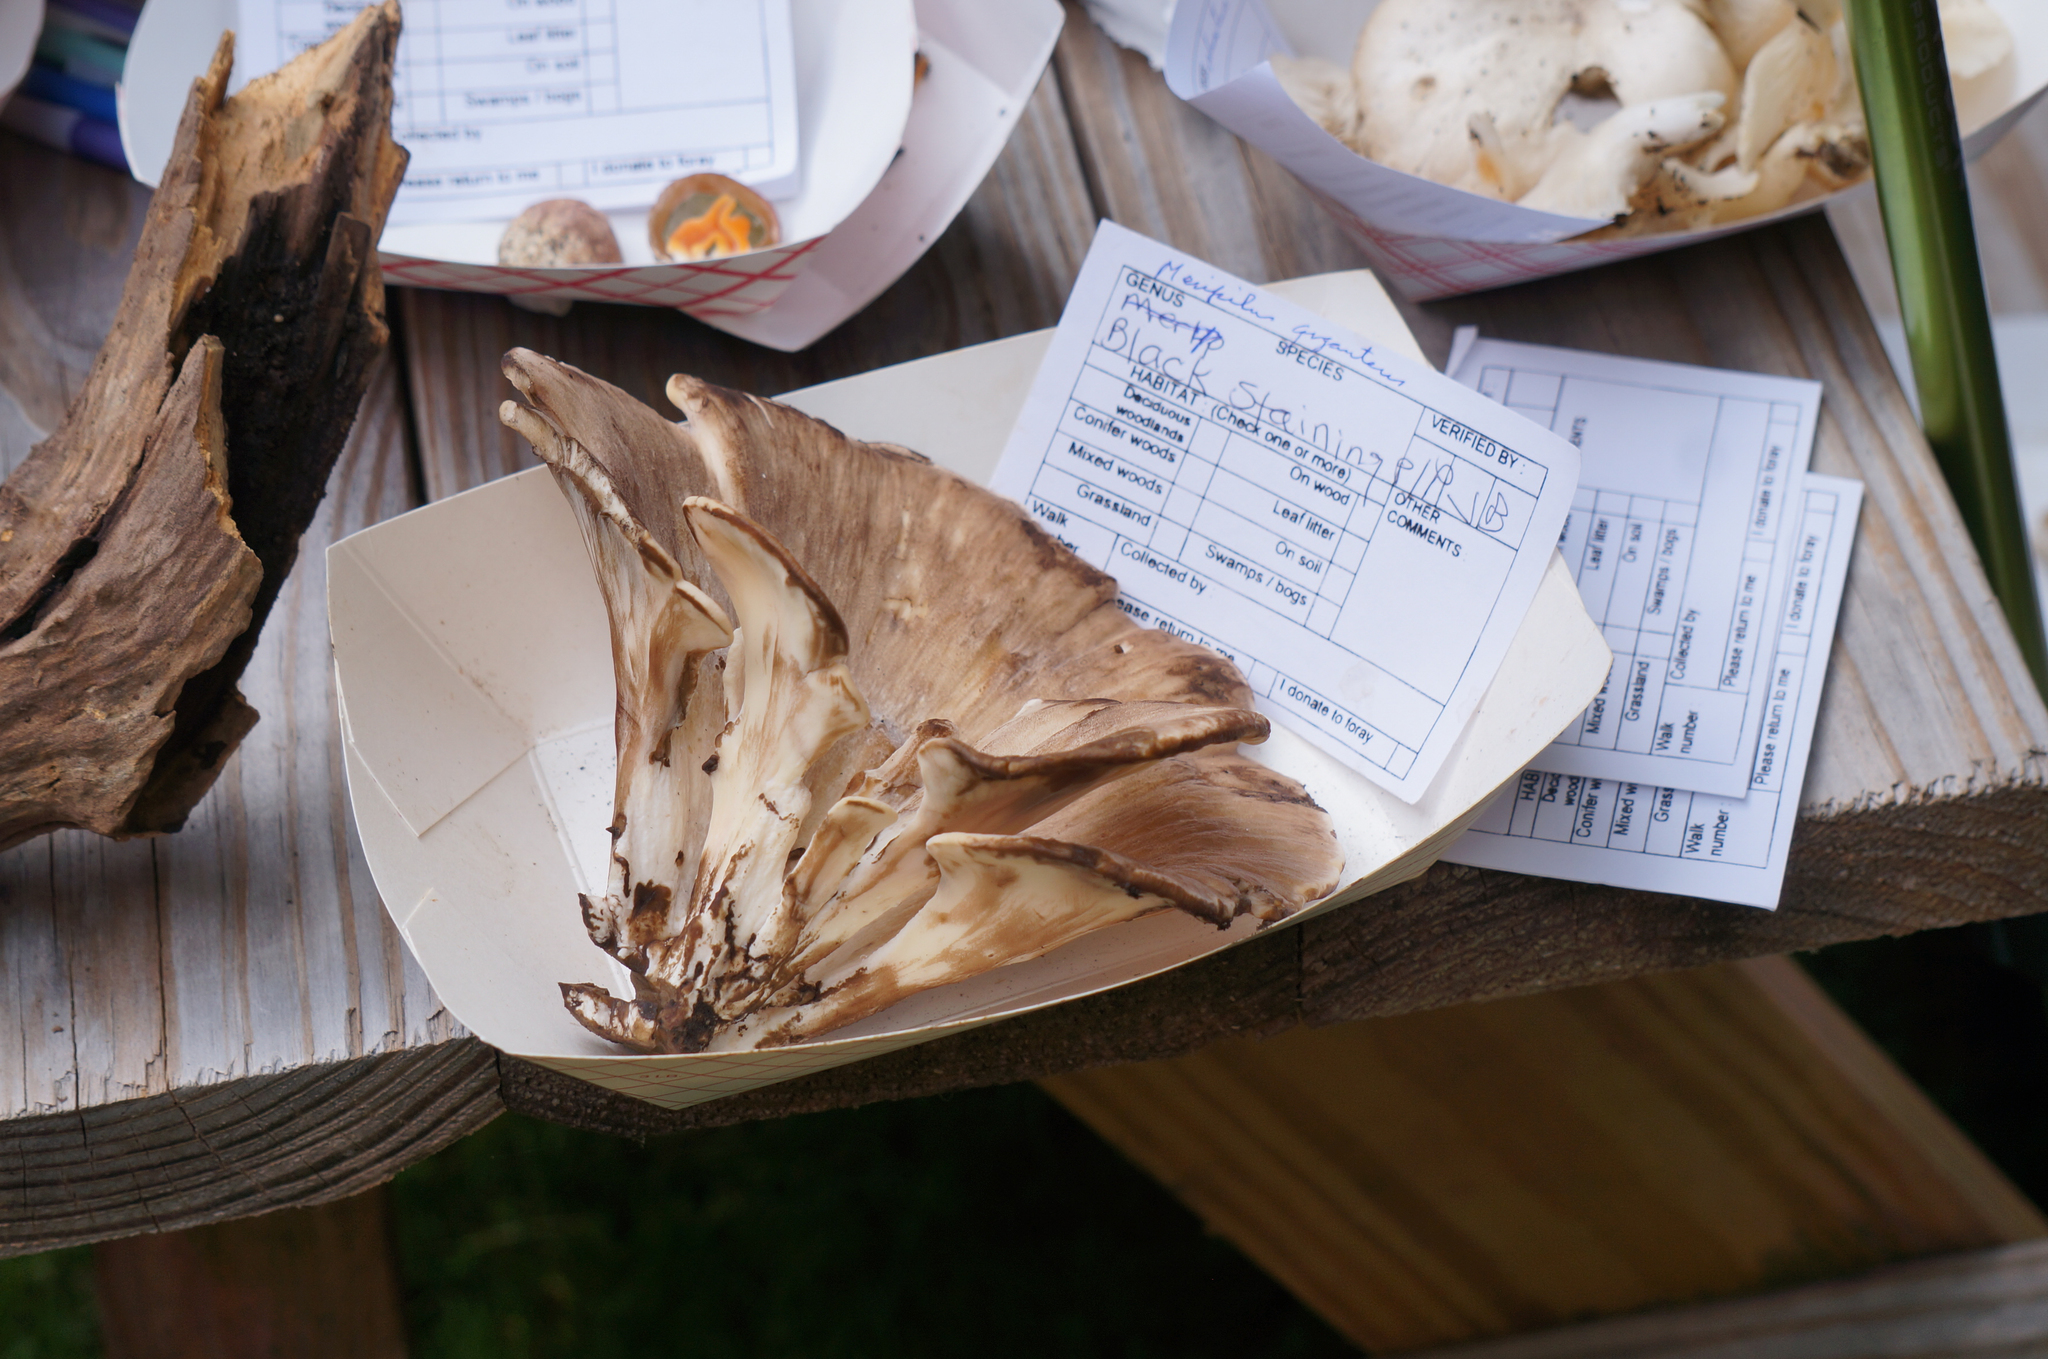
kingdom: Fungi
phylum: Basidiomycota
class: Agaricomycetes
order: Polyporales
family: Meripilaceae
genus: Meripilus
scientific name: Meripilus sumstinei
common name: Black-staining polypore
